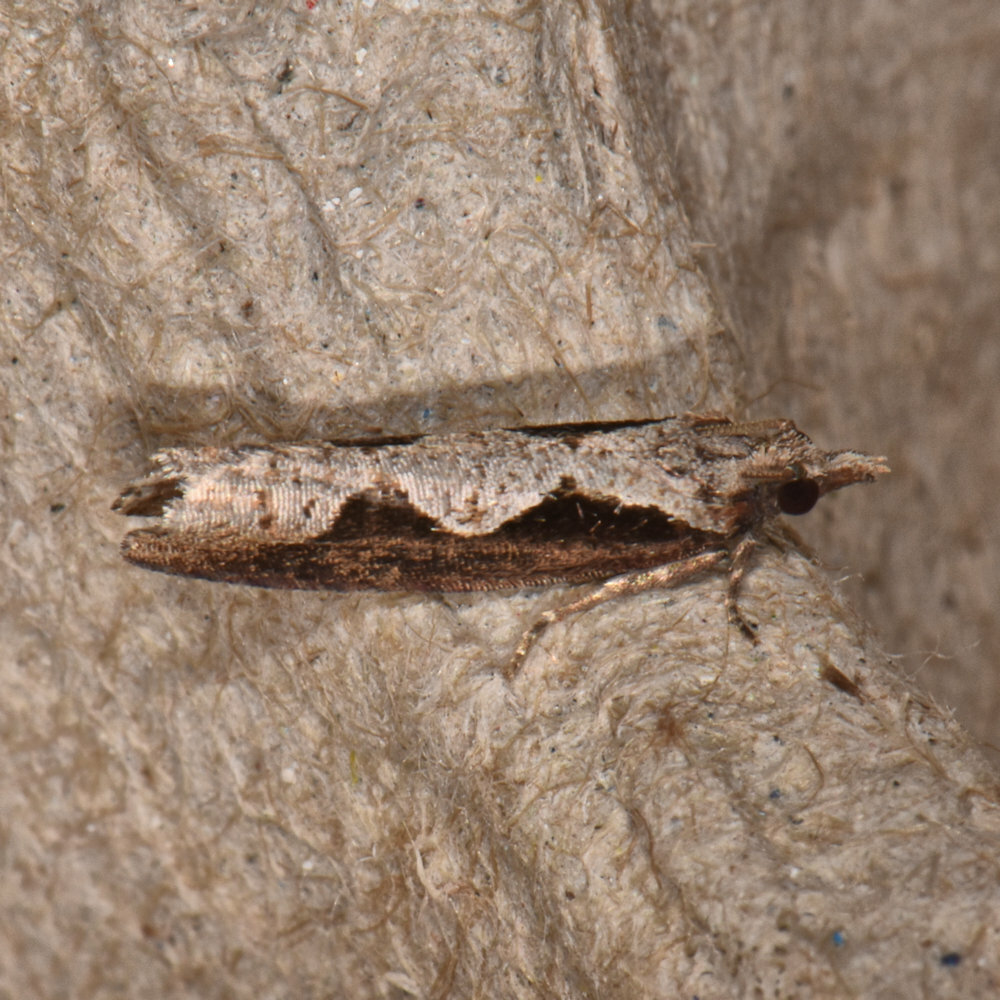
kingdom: Animalia
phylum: Arthropoda
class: Insecta
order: Lepidoptera
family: Tortricidae
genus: Epinotia
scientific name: Epinotia lindana
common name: Diamondback epinotia moth
